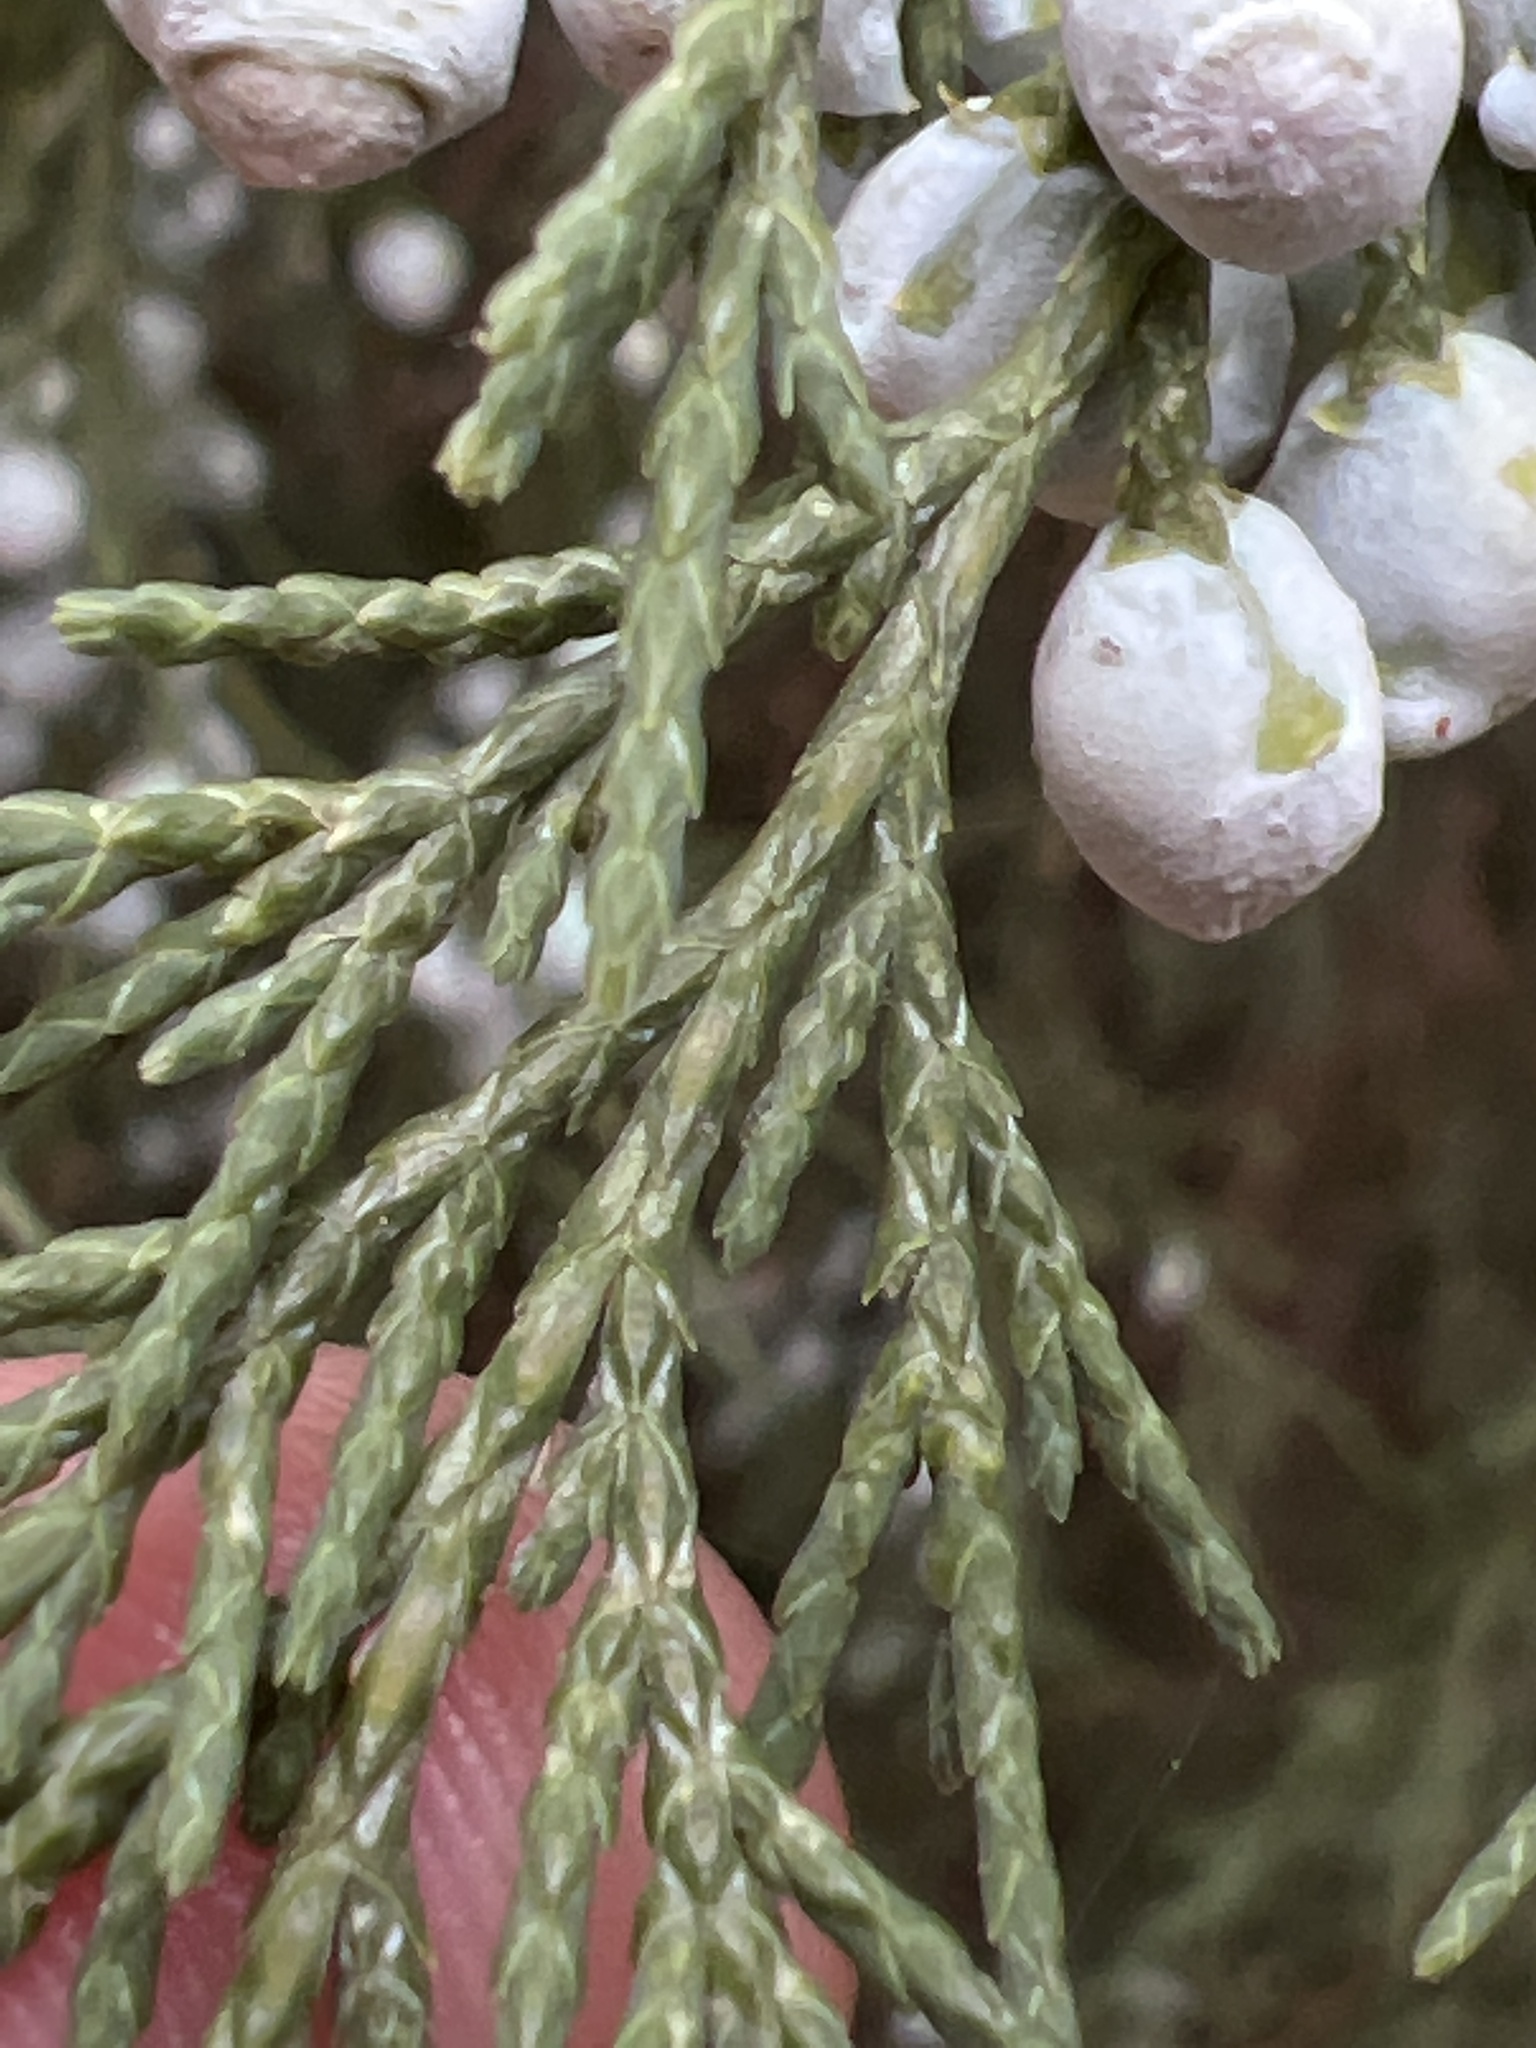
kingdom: Plantae
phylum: Tracheophyta
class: Pinopsida
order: Pinales
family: Cupressaceae
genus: Juniperus
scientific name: Juniperus scopulorum
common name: Rocky mountain juniper
